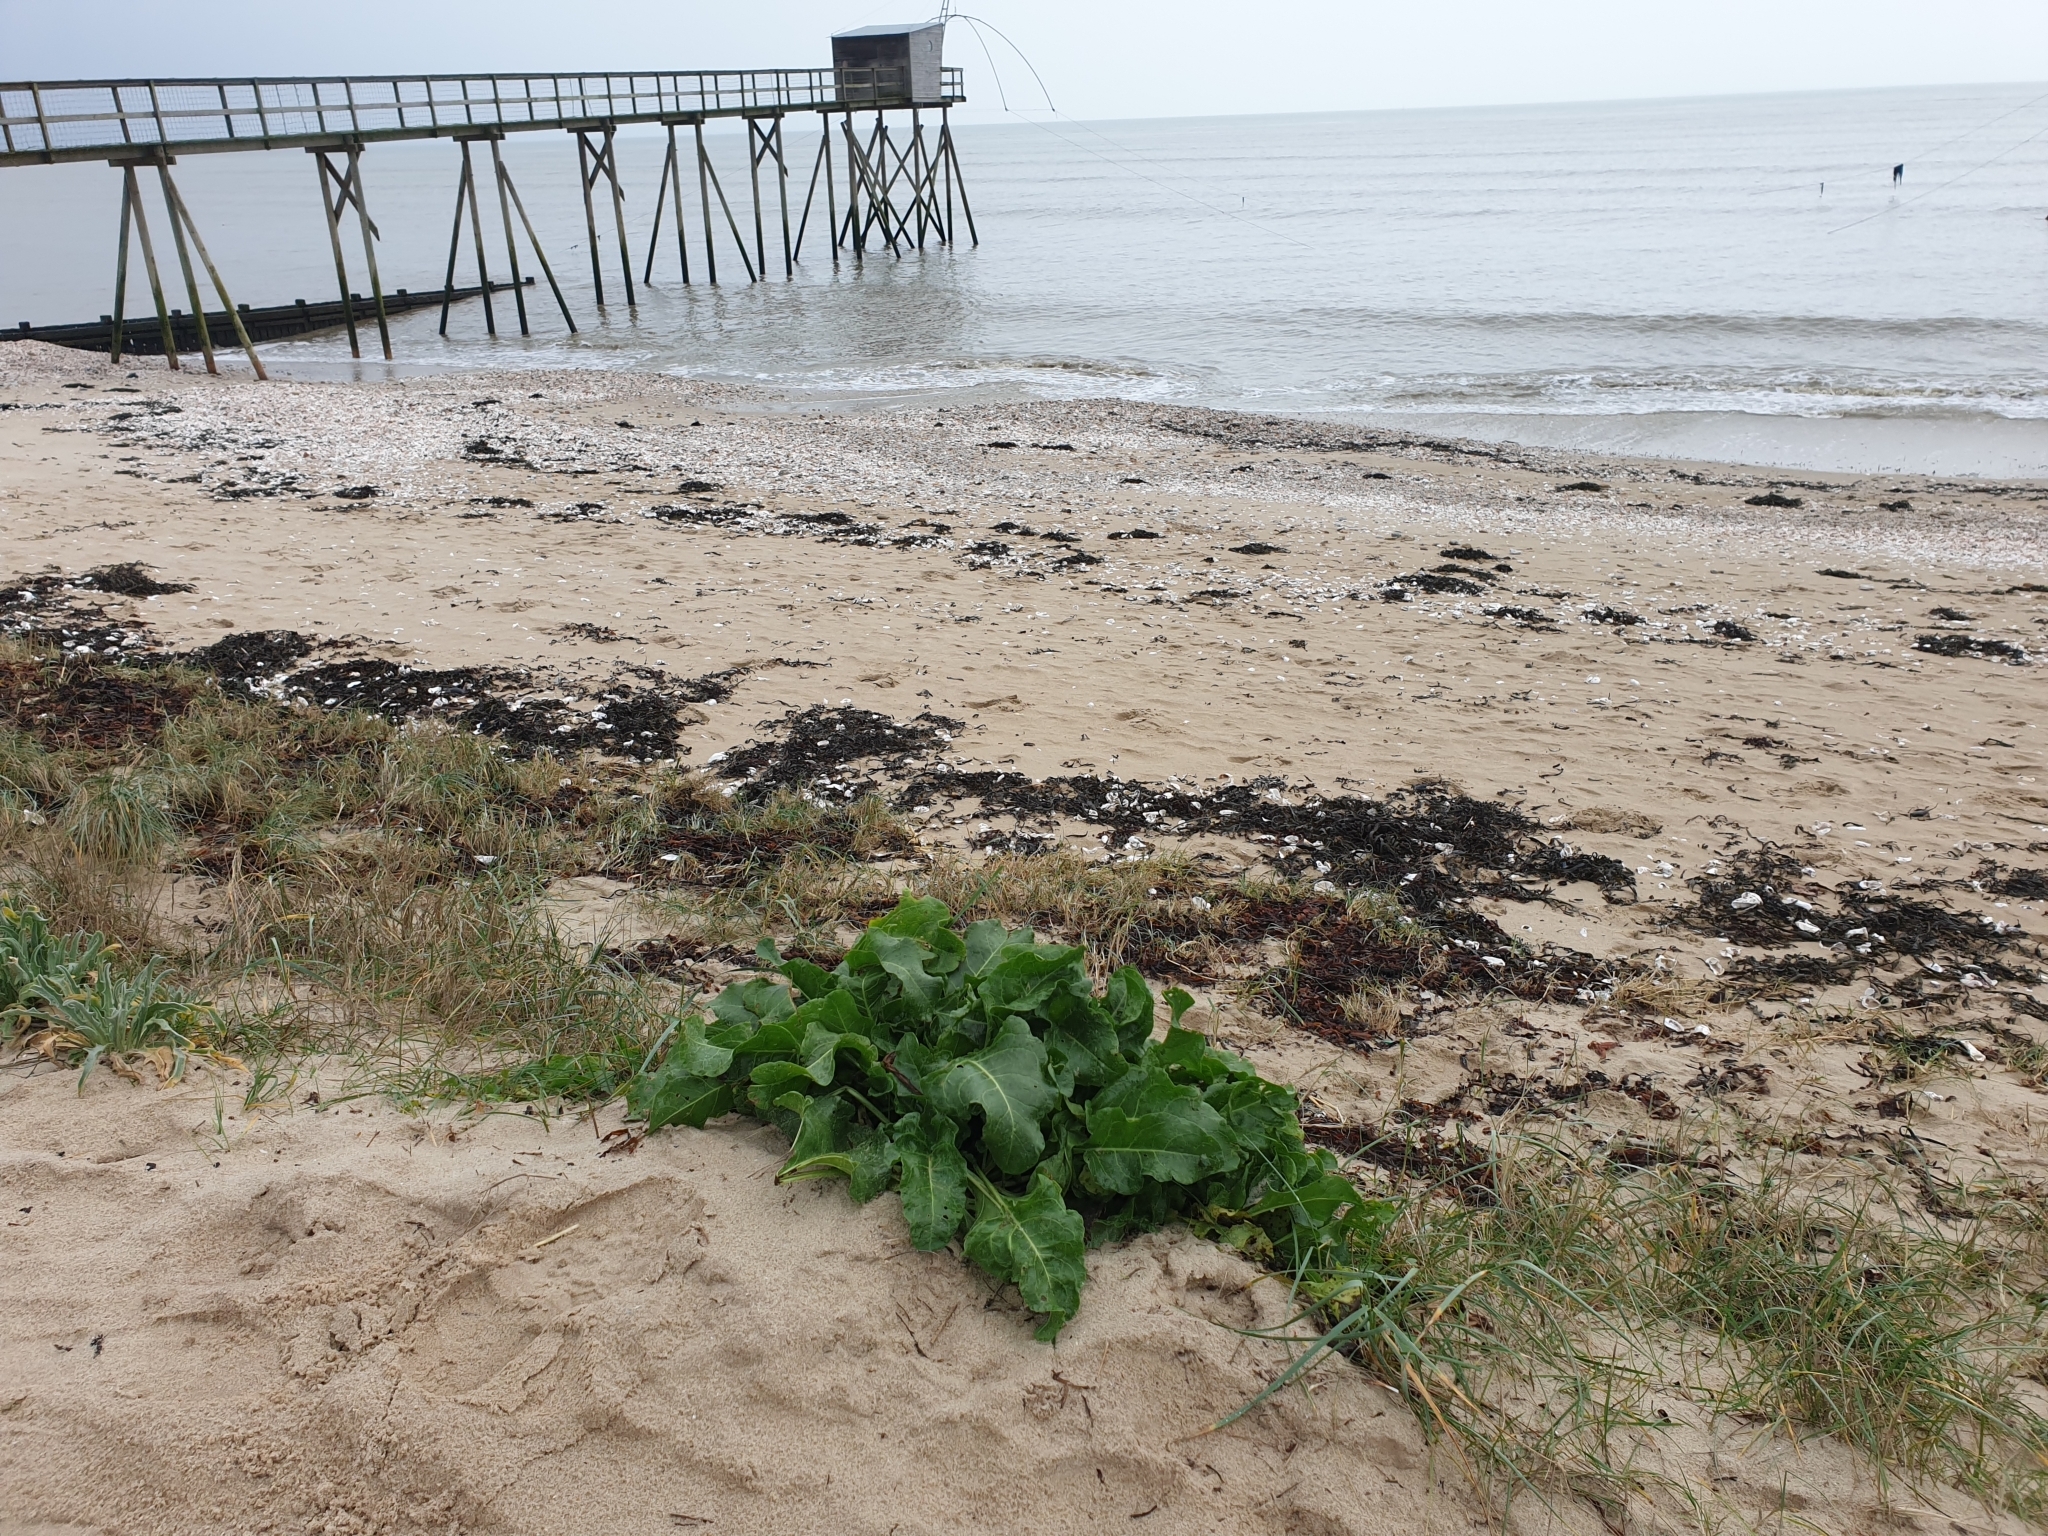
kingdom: Plantae
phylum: Tracheophyta
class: Magnoliopsida
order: Caryophyllales
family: Amaranthaceae
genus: Beta
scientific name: Beta vulgaris
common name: Beet
